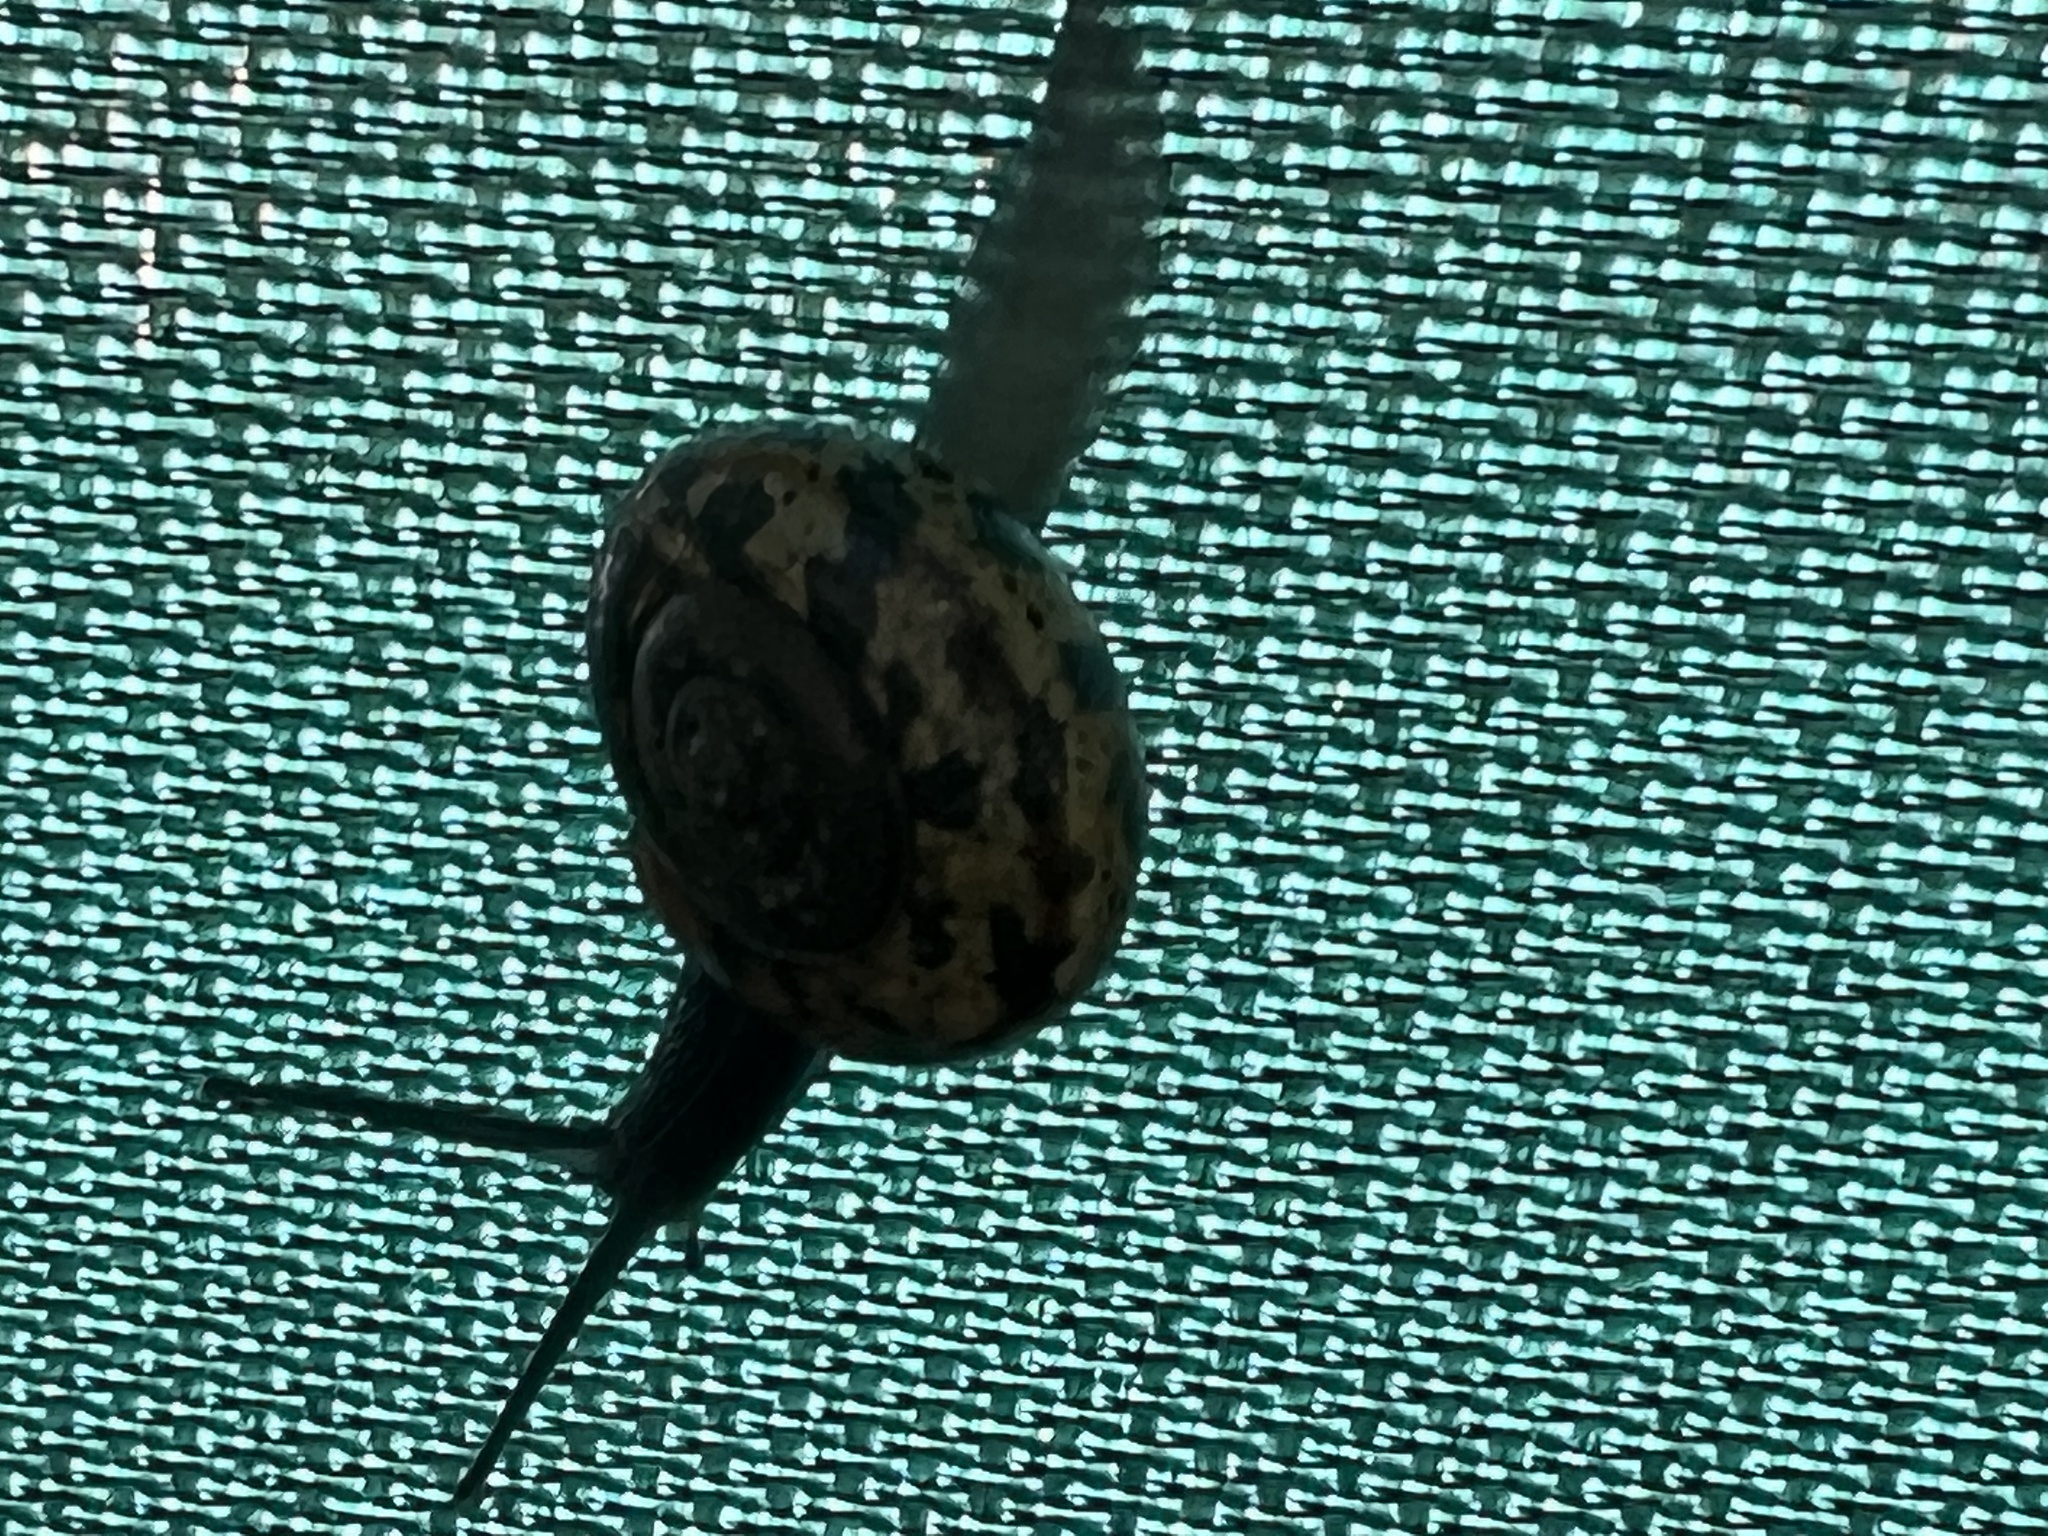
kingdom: Animalia
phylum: Mollusca
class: Gastropoda
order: Stylommatophora
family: Helicidae
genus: Campylaea
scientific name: Campylaea planospira
